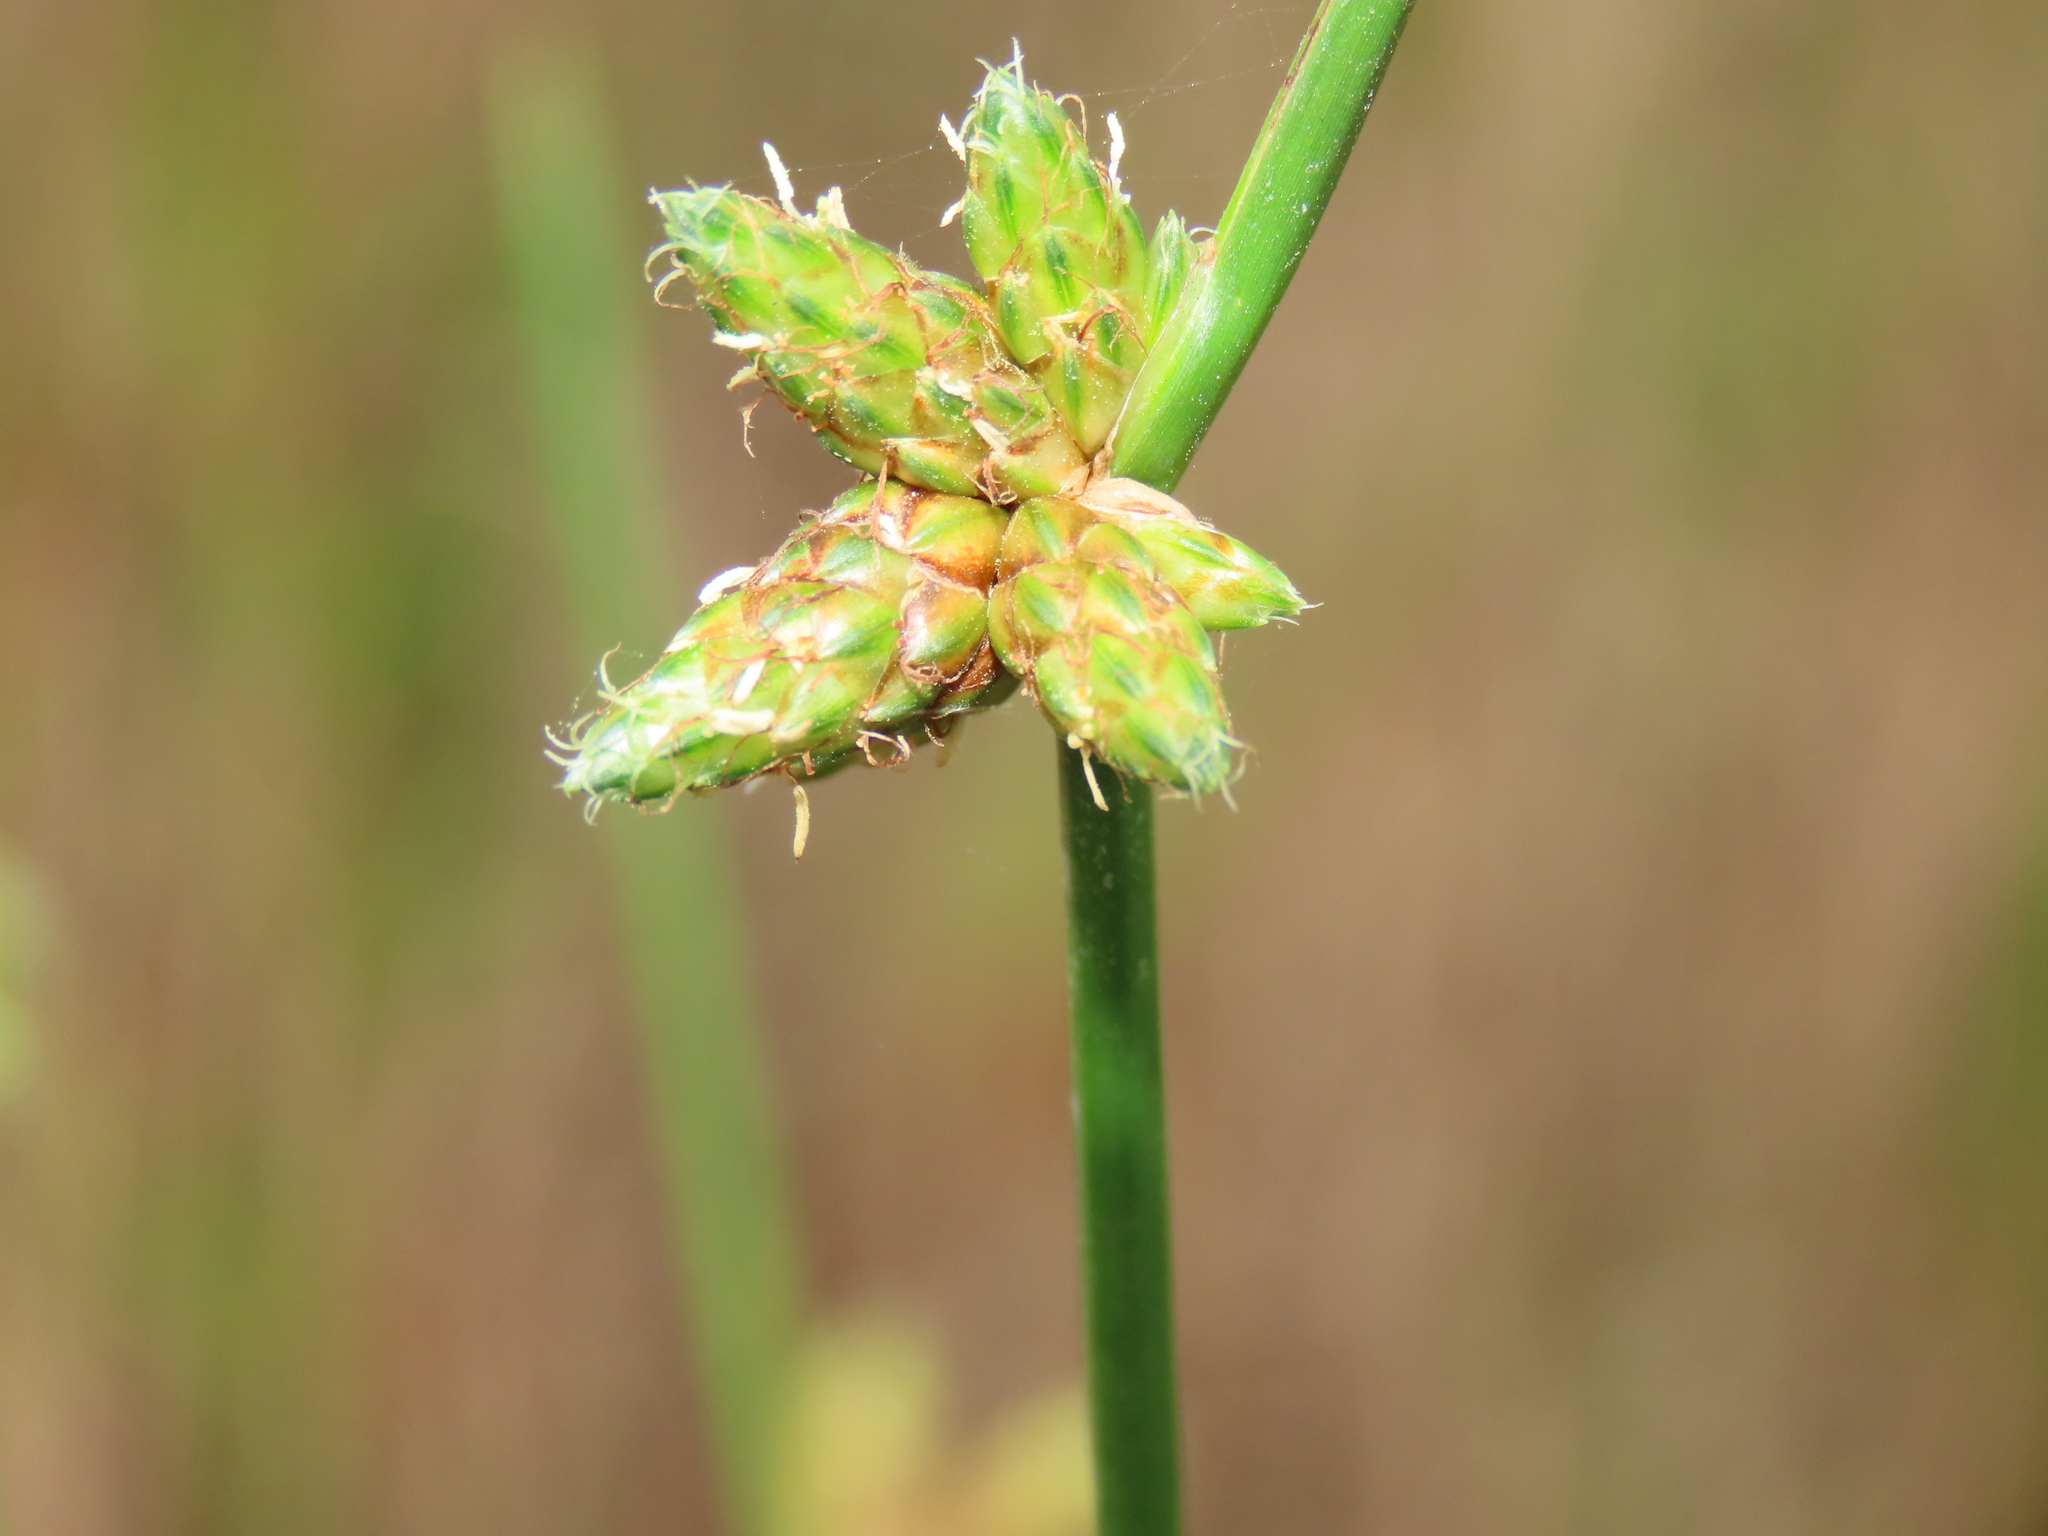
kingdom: Plantae
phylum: Tracheophyta
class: Liliopsida
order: Poales
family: Cyperaceae
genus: Schoenoplectiella
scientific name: Schoenoplectiella juncoides
